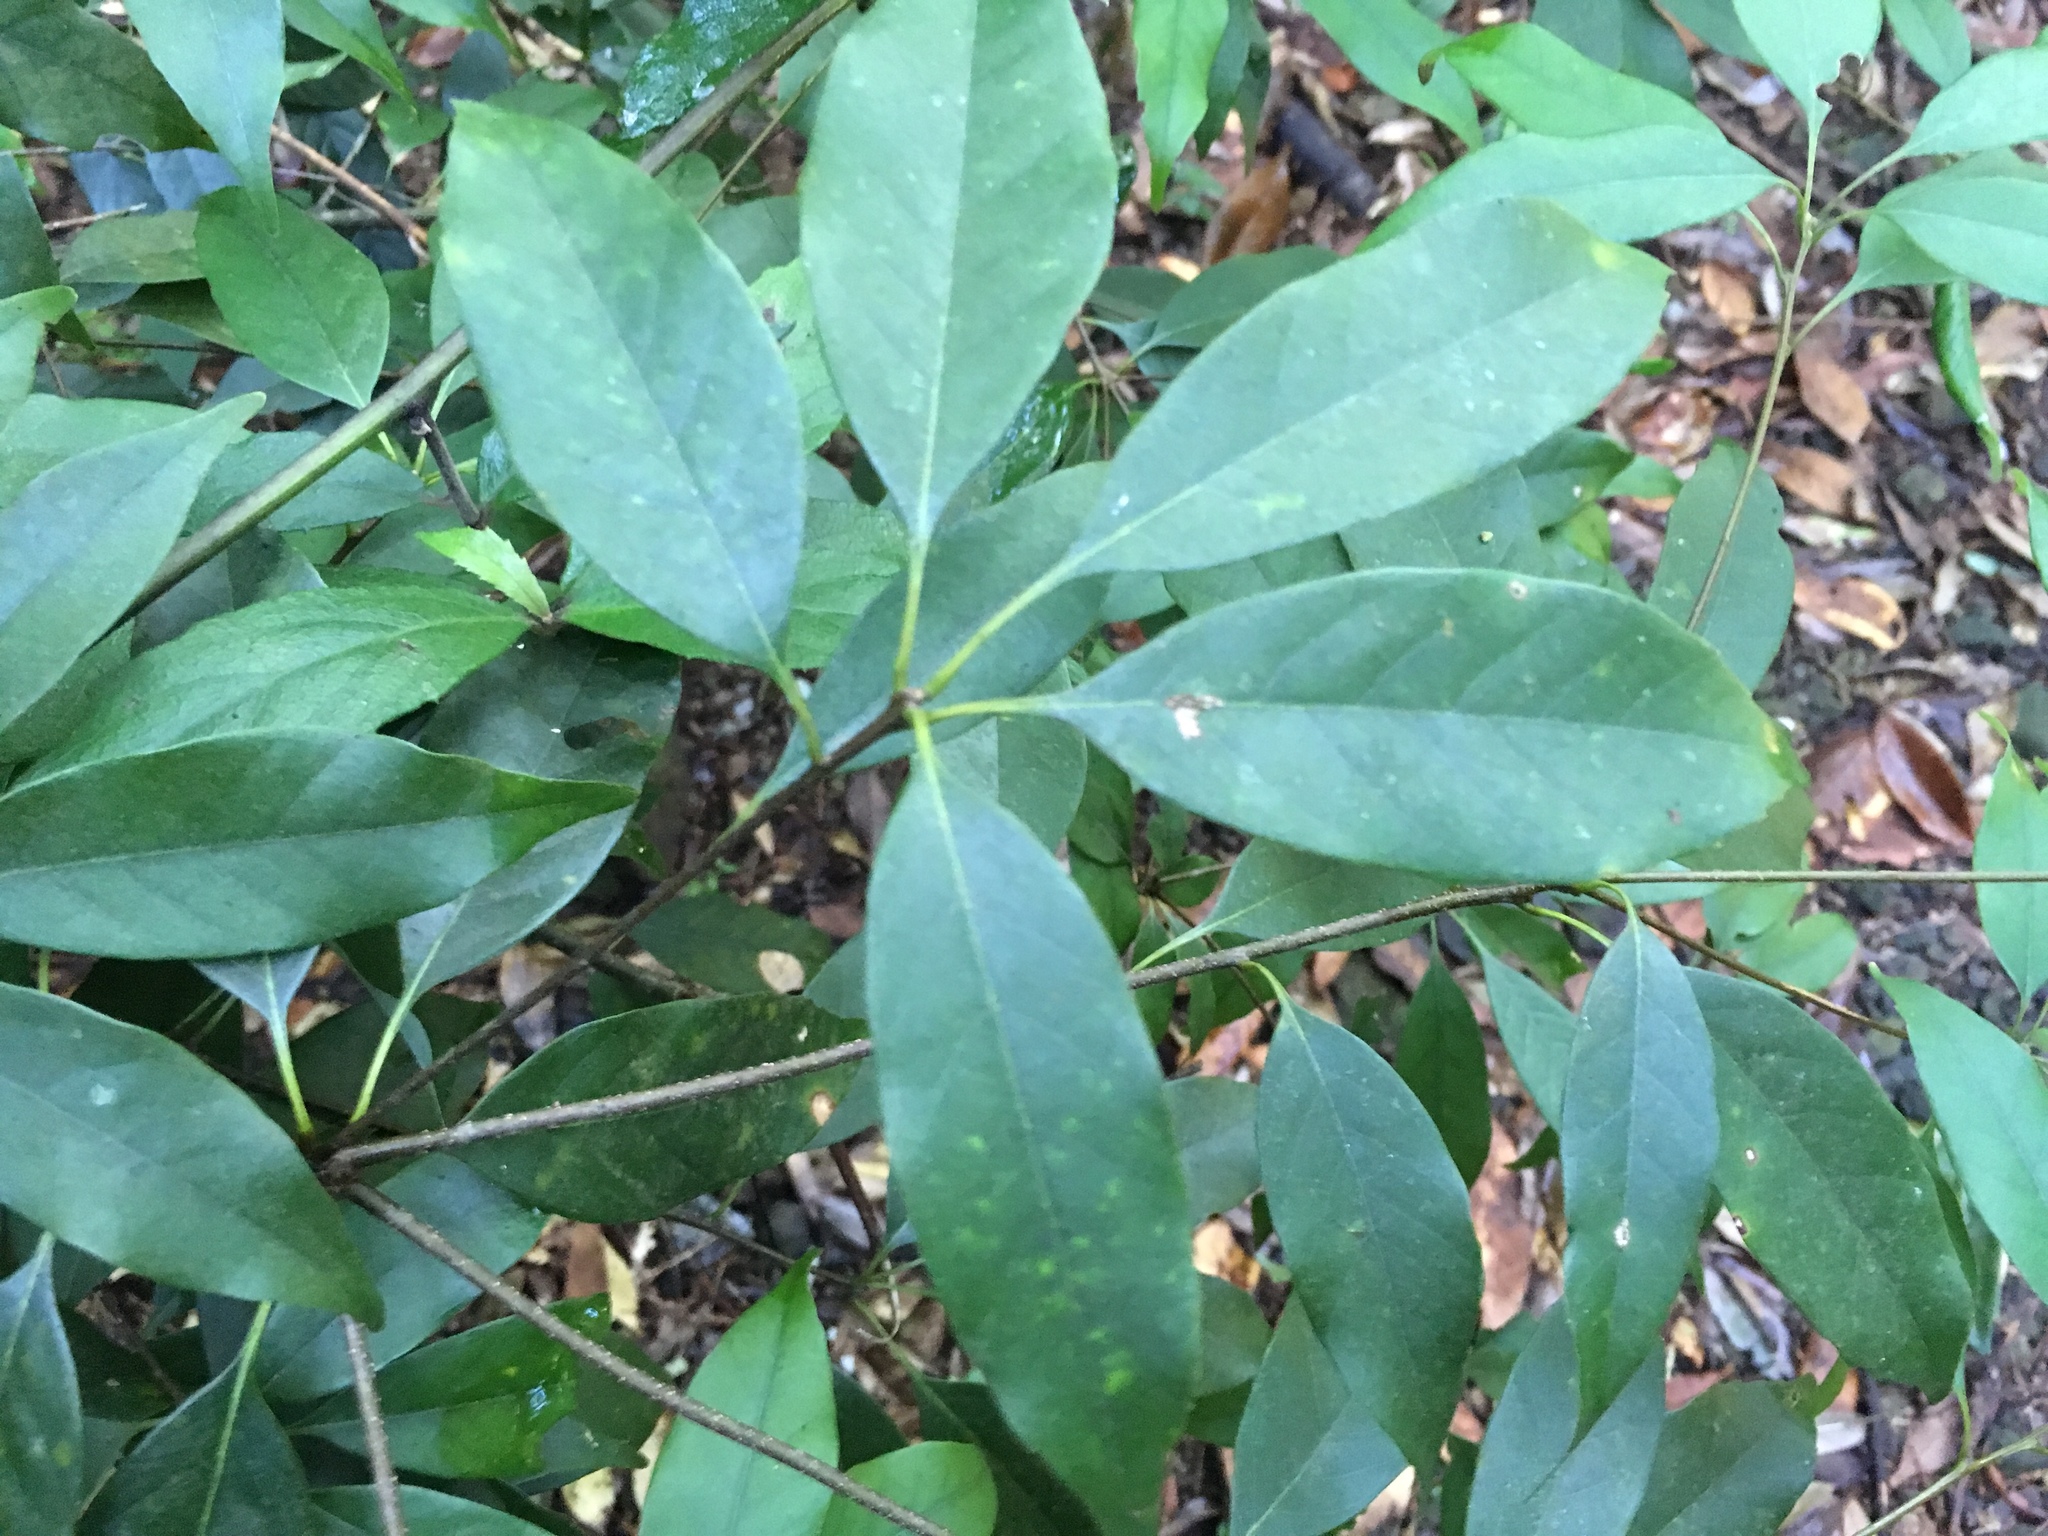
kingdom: Plantae
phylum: Tracheophyta
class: Magnoliopsida
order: Fagales
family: Fagaceae
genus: Lithocarpus
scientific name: Lithocarpus glaber
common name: Japanese-oak
